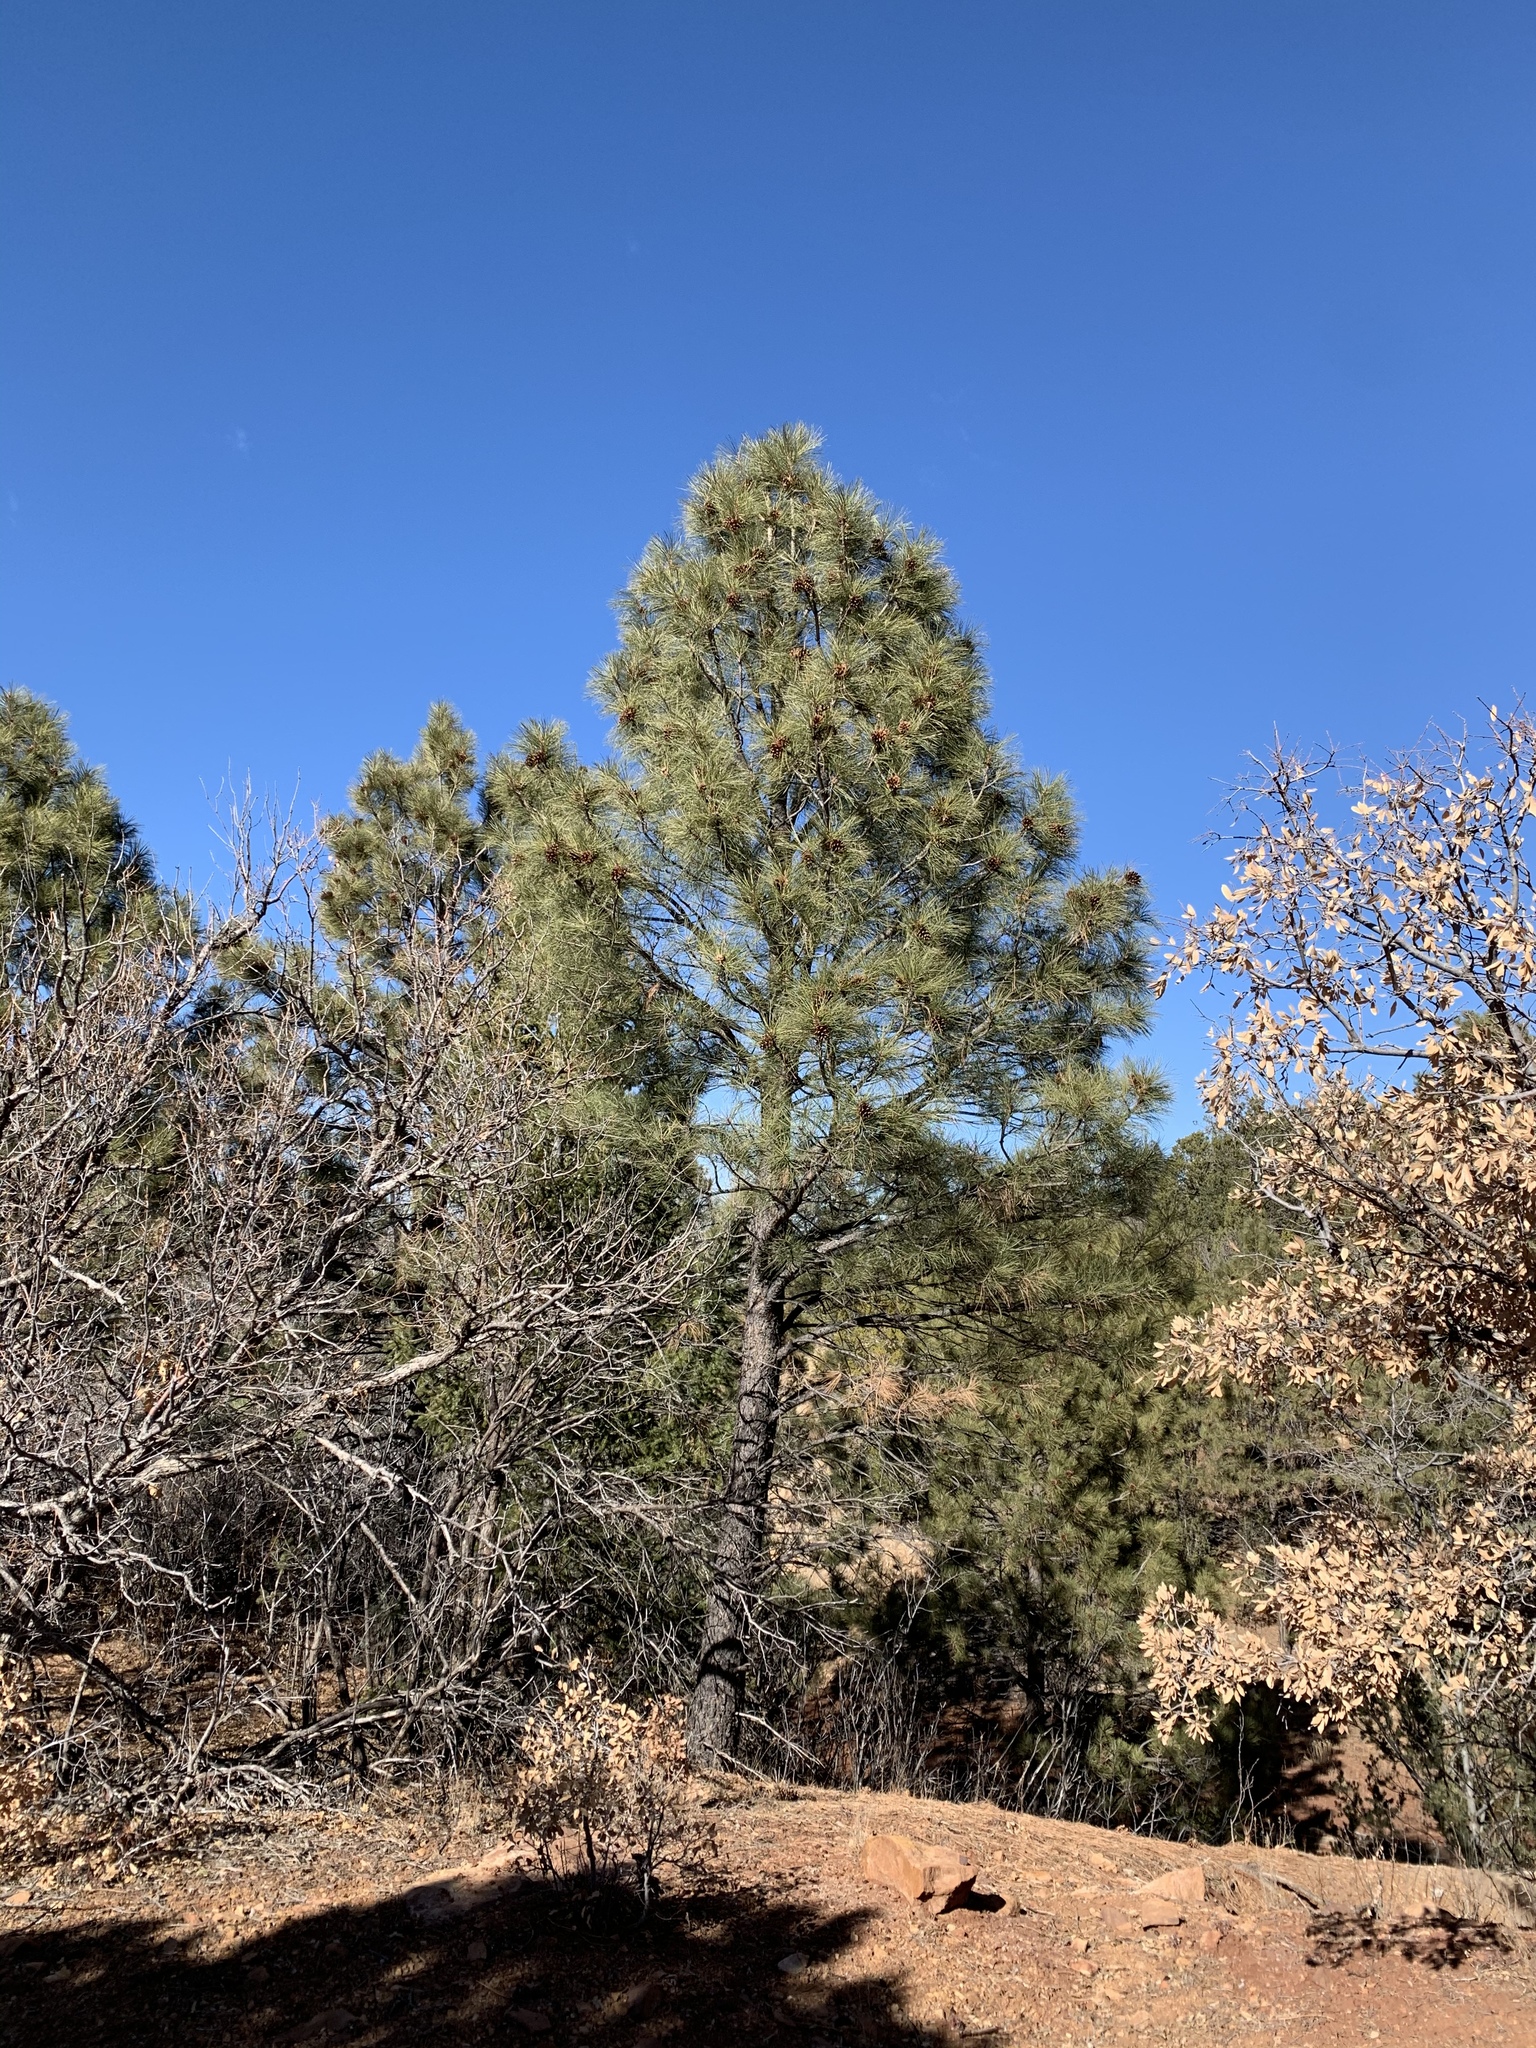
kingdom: Plantae
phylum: Tracheophyta
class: Pinopsida
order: Pinales
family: Pinaceae
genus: Pinus
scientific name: Pinus ponderosa
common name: Western yellow-pine
